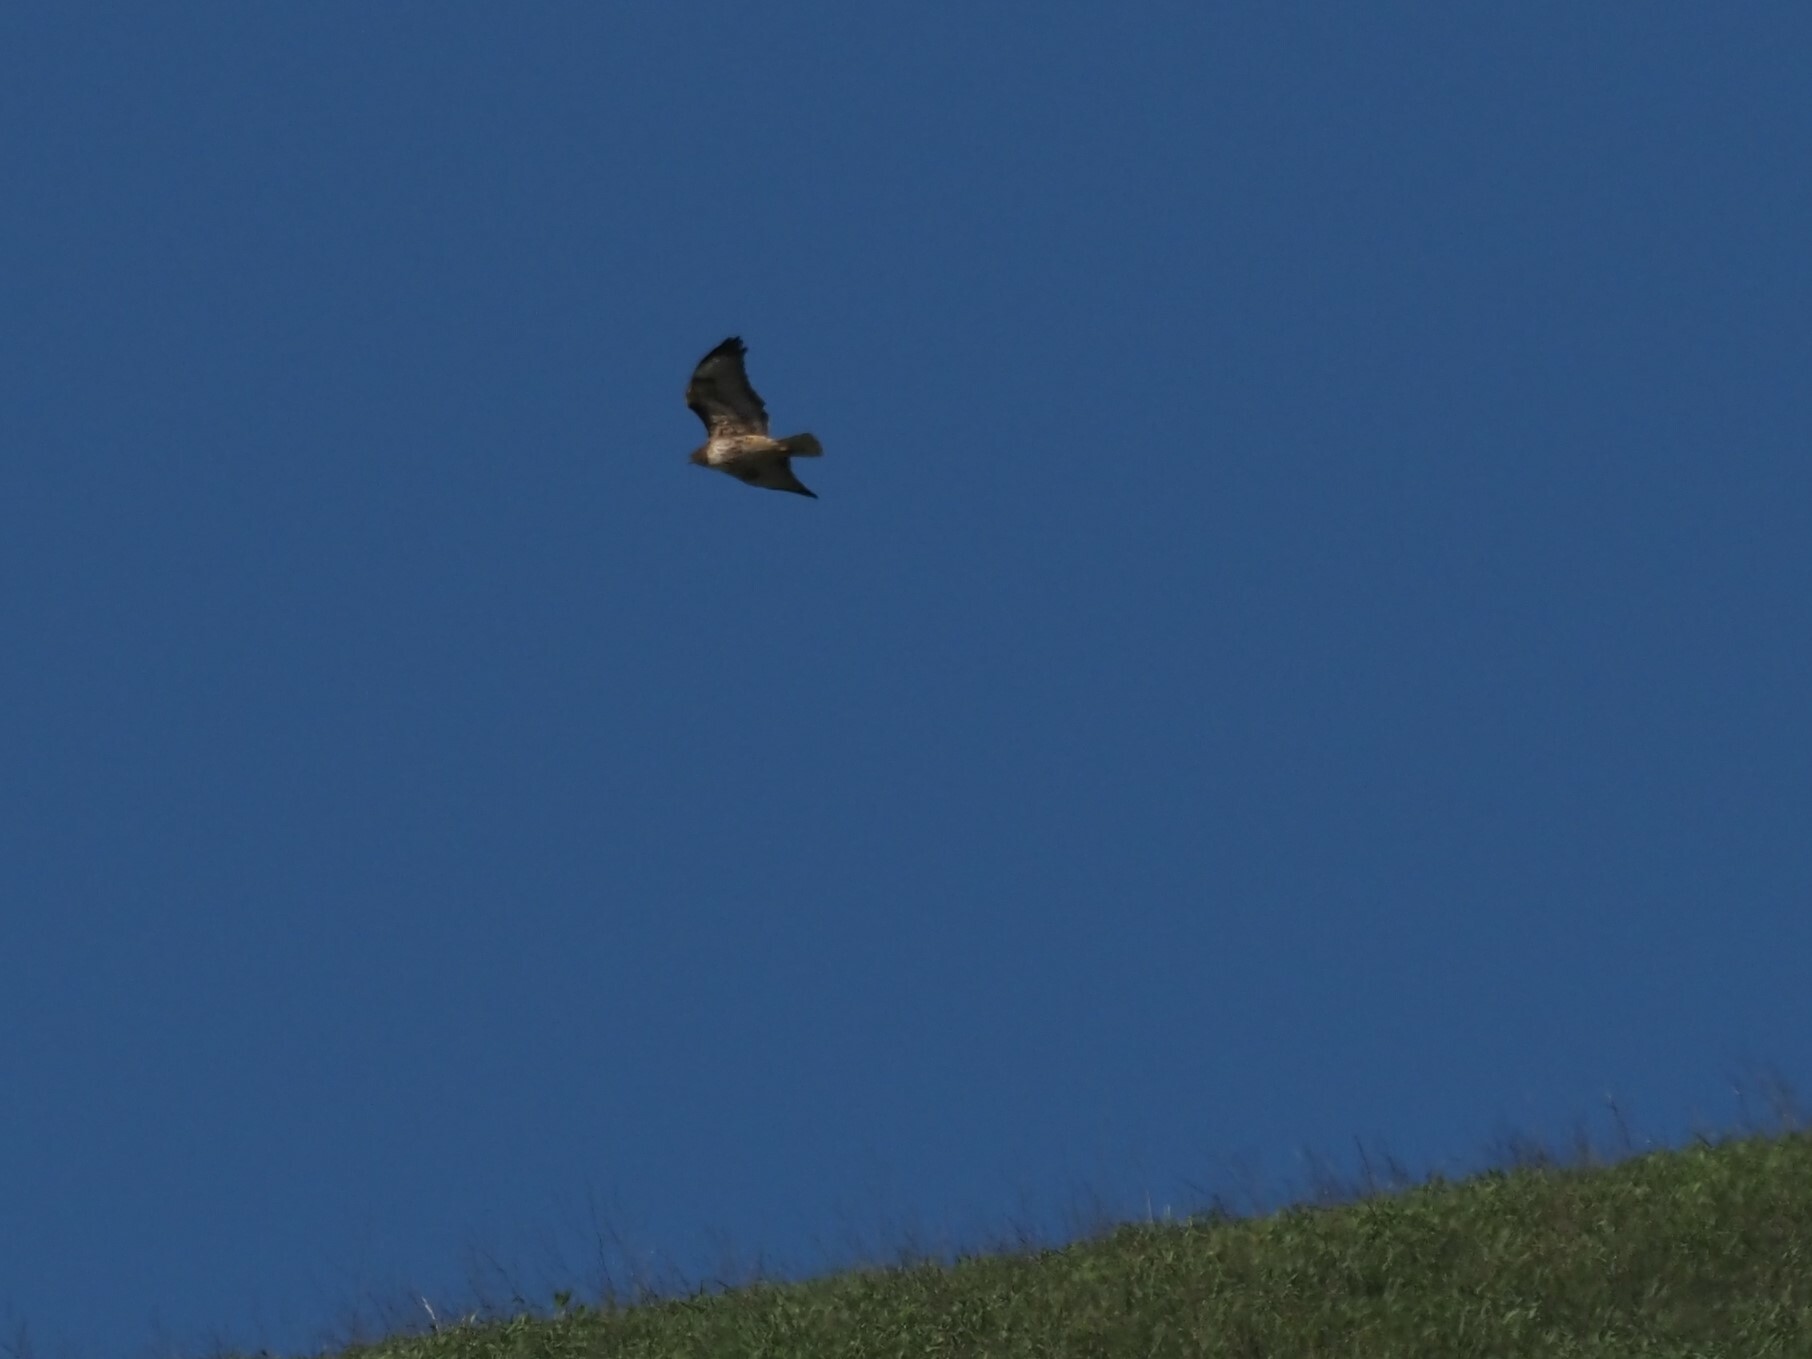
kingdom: Animalia
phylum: Chordata
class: Aves
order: Accipitriformes
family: Accipitridae
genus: Buteo
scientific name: Buteo jamaicensis
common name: Red-tailed hawk
